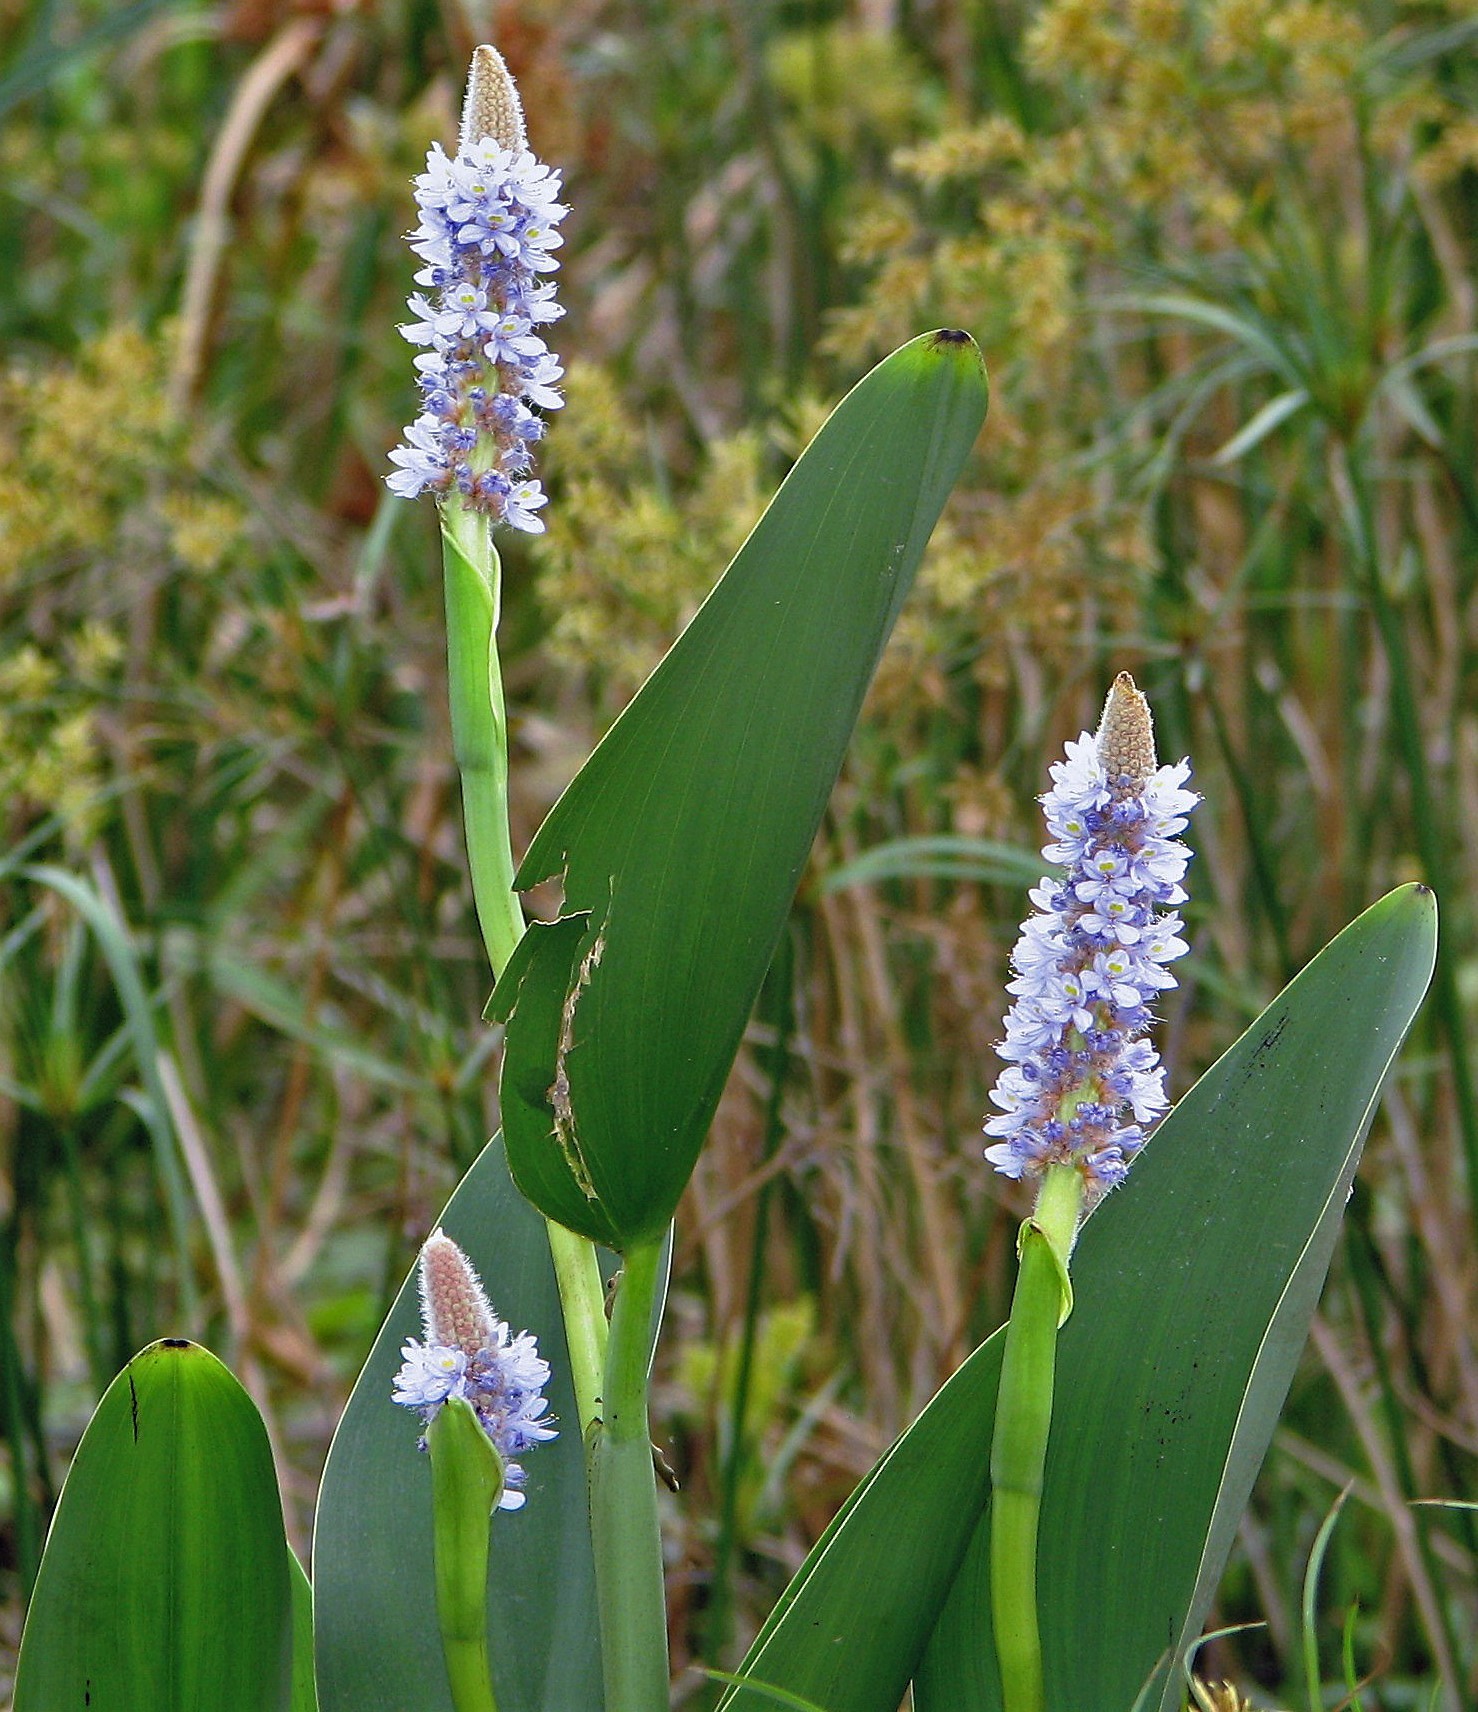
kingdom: Plantae
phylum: Tracheophyta
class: Liliopsida
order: Commelinales
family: Pontederiaceae
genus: Pontederia
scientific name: Pontederia cordata
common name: Pickerelweed
